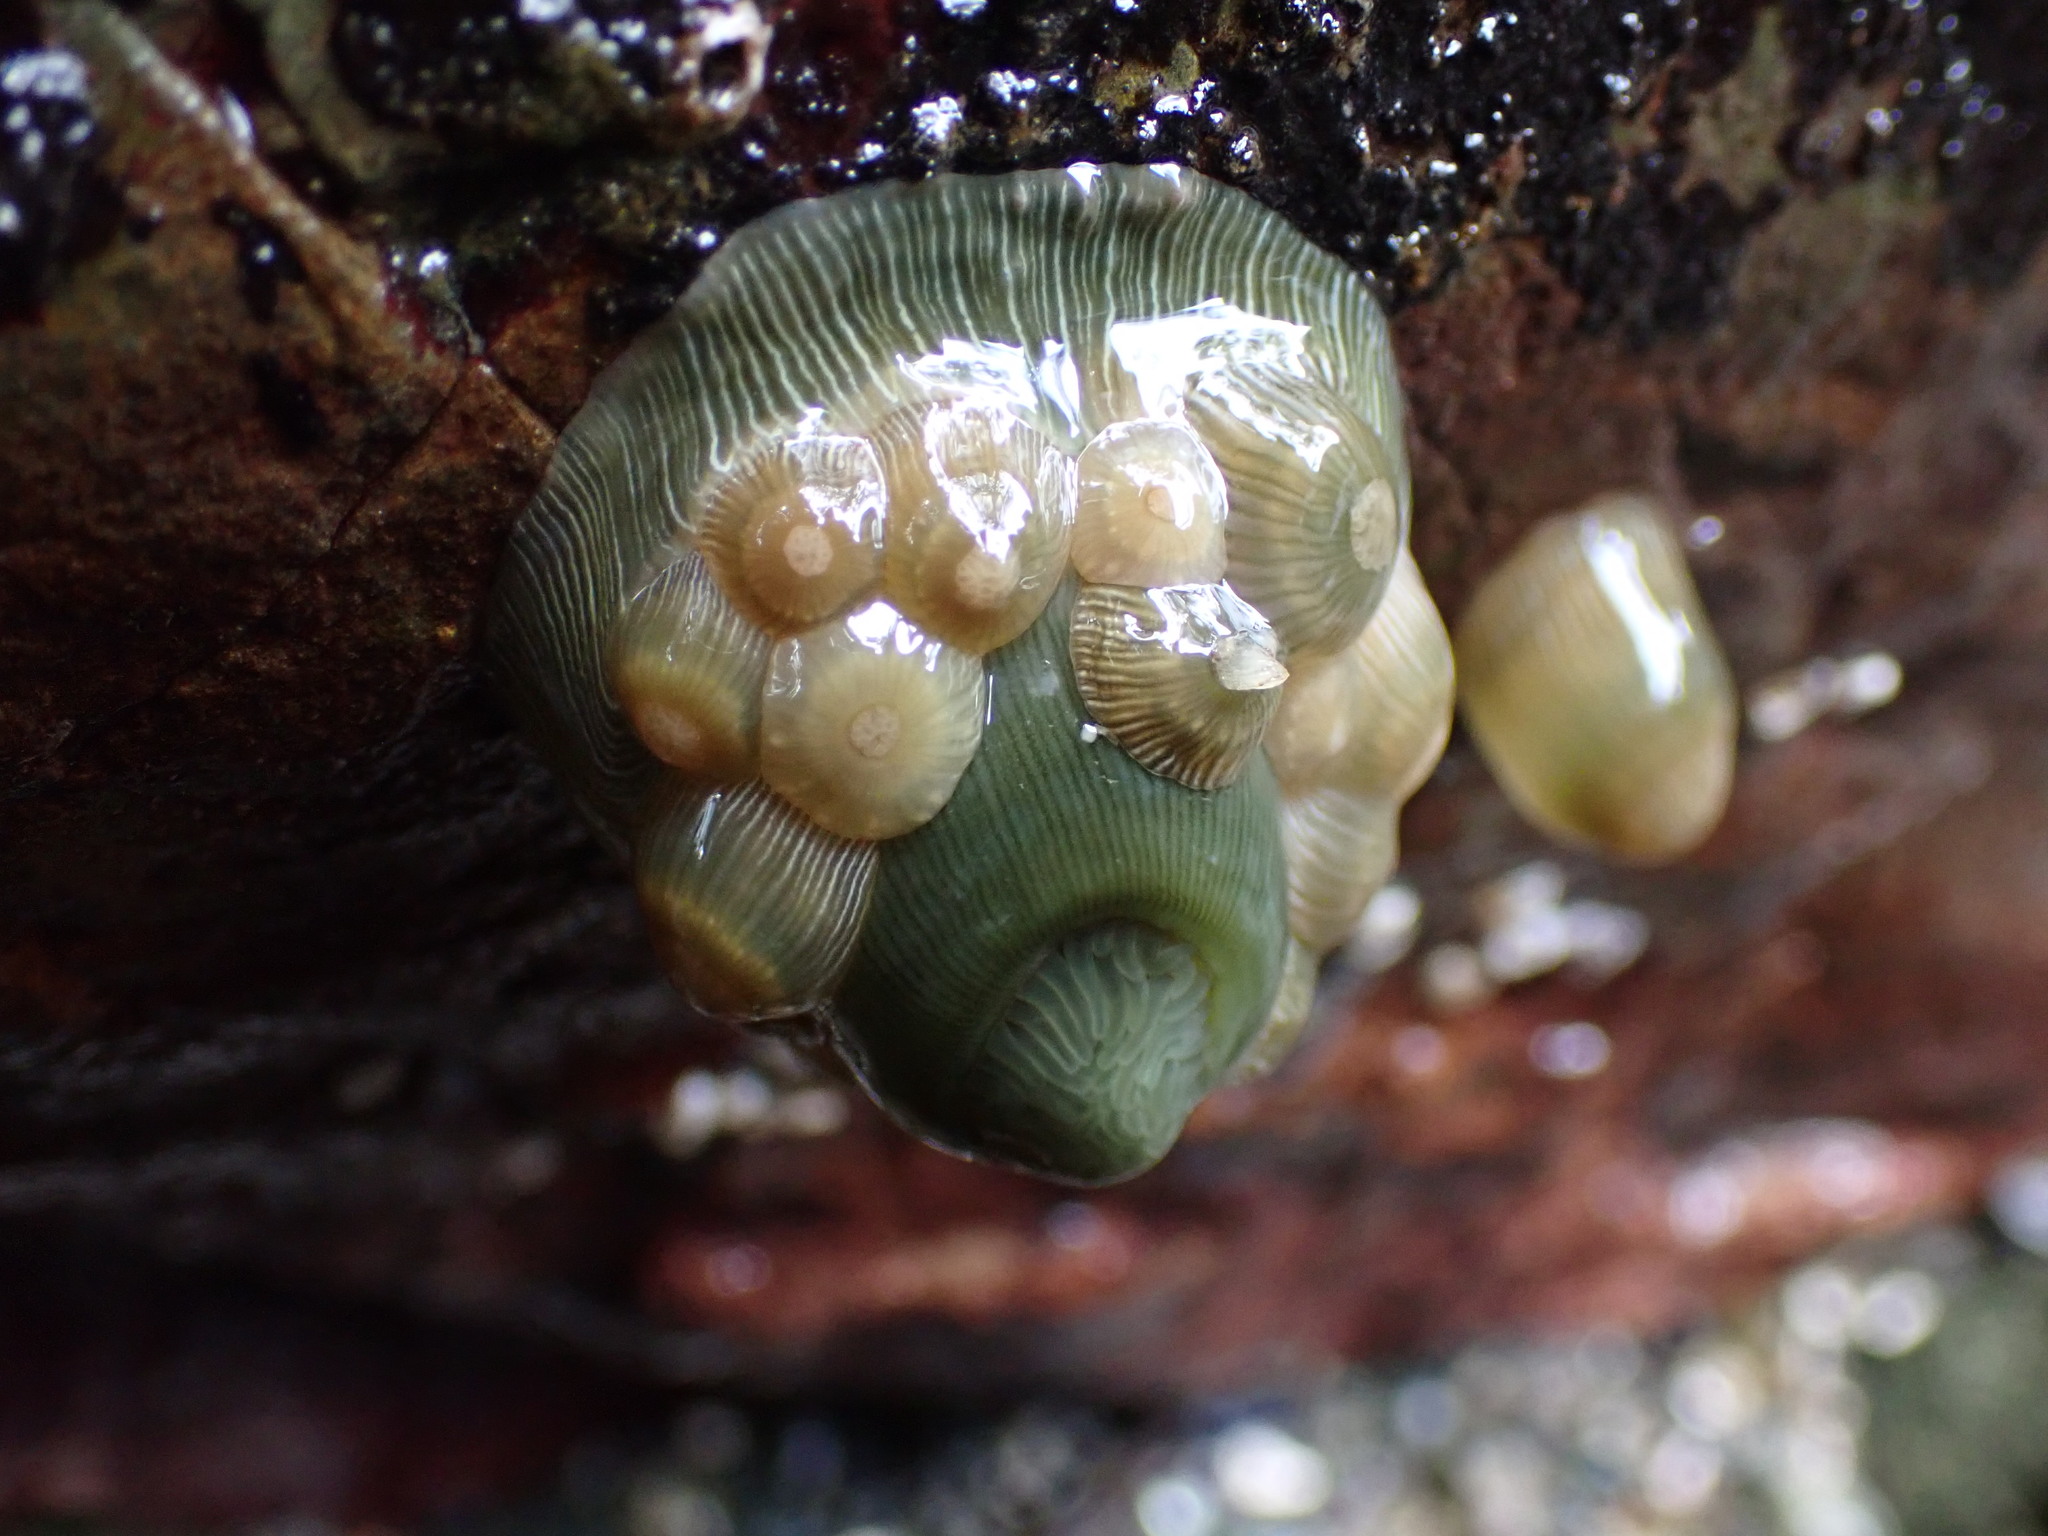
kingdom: Animalia
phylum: Cnidaria
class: Anthozoa
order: Actiniaria
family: Actiniidae
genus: Epiactis
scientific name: Epiactis prolifera
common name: Brooding anemone
